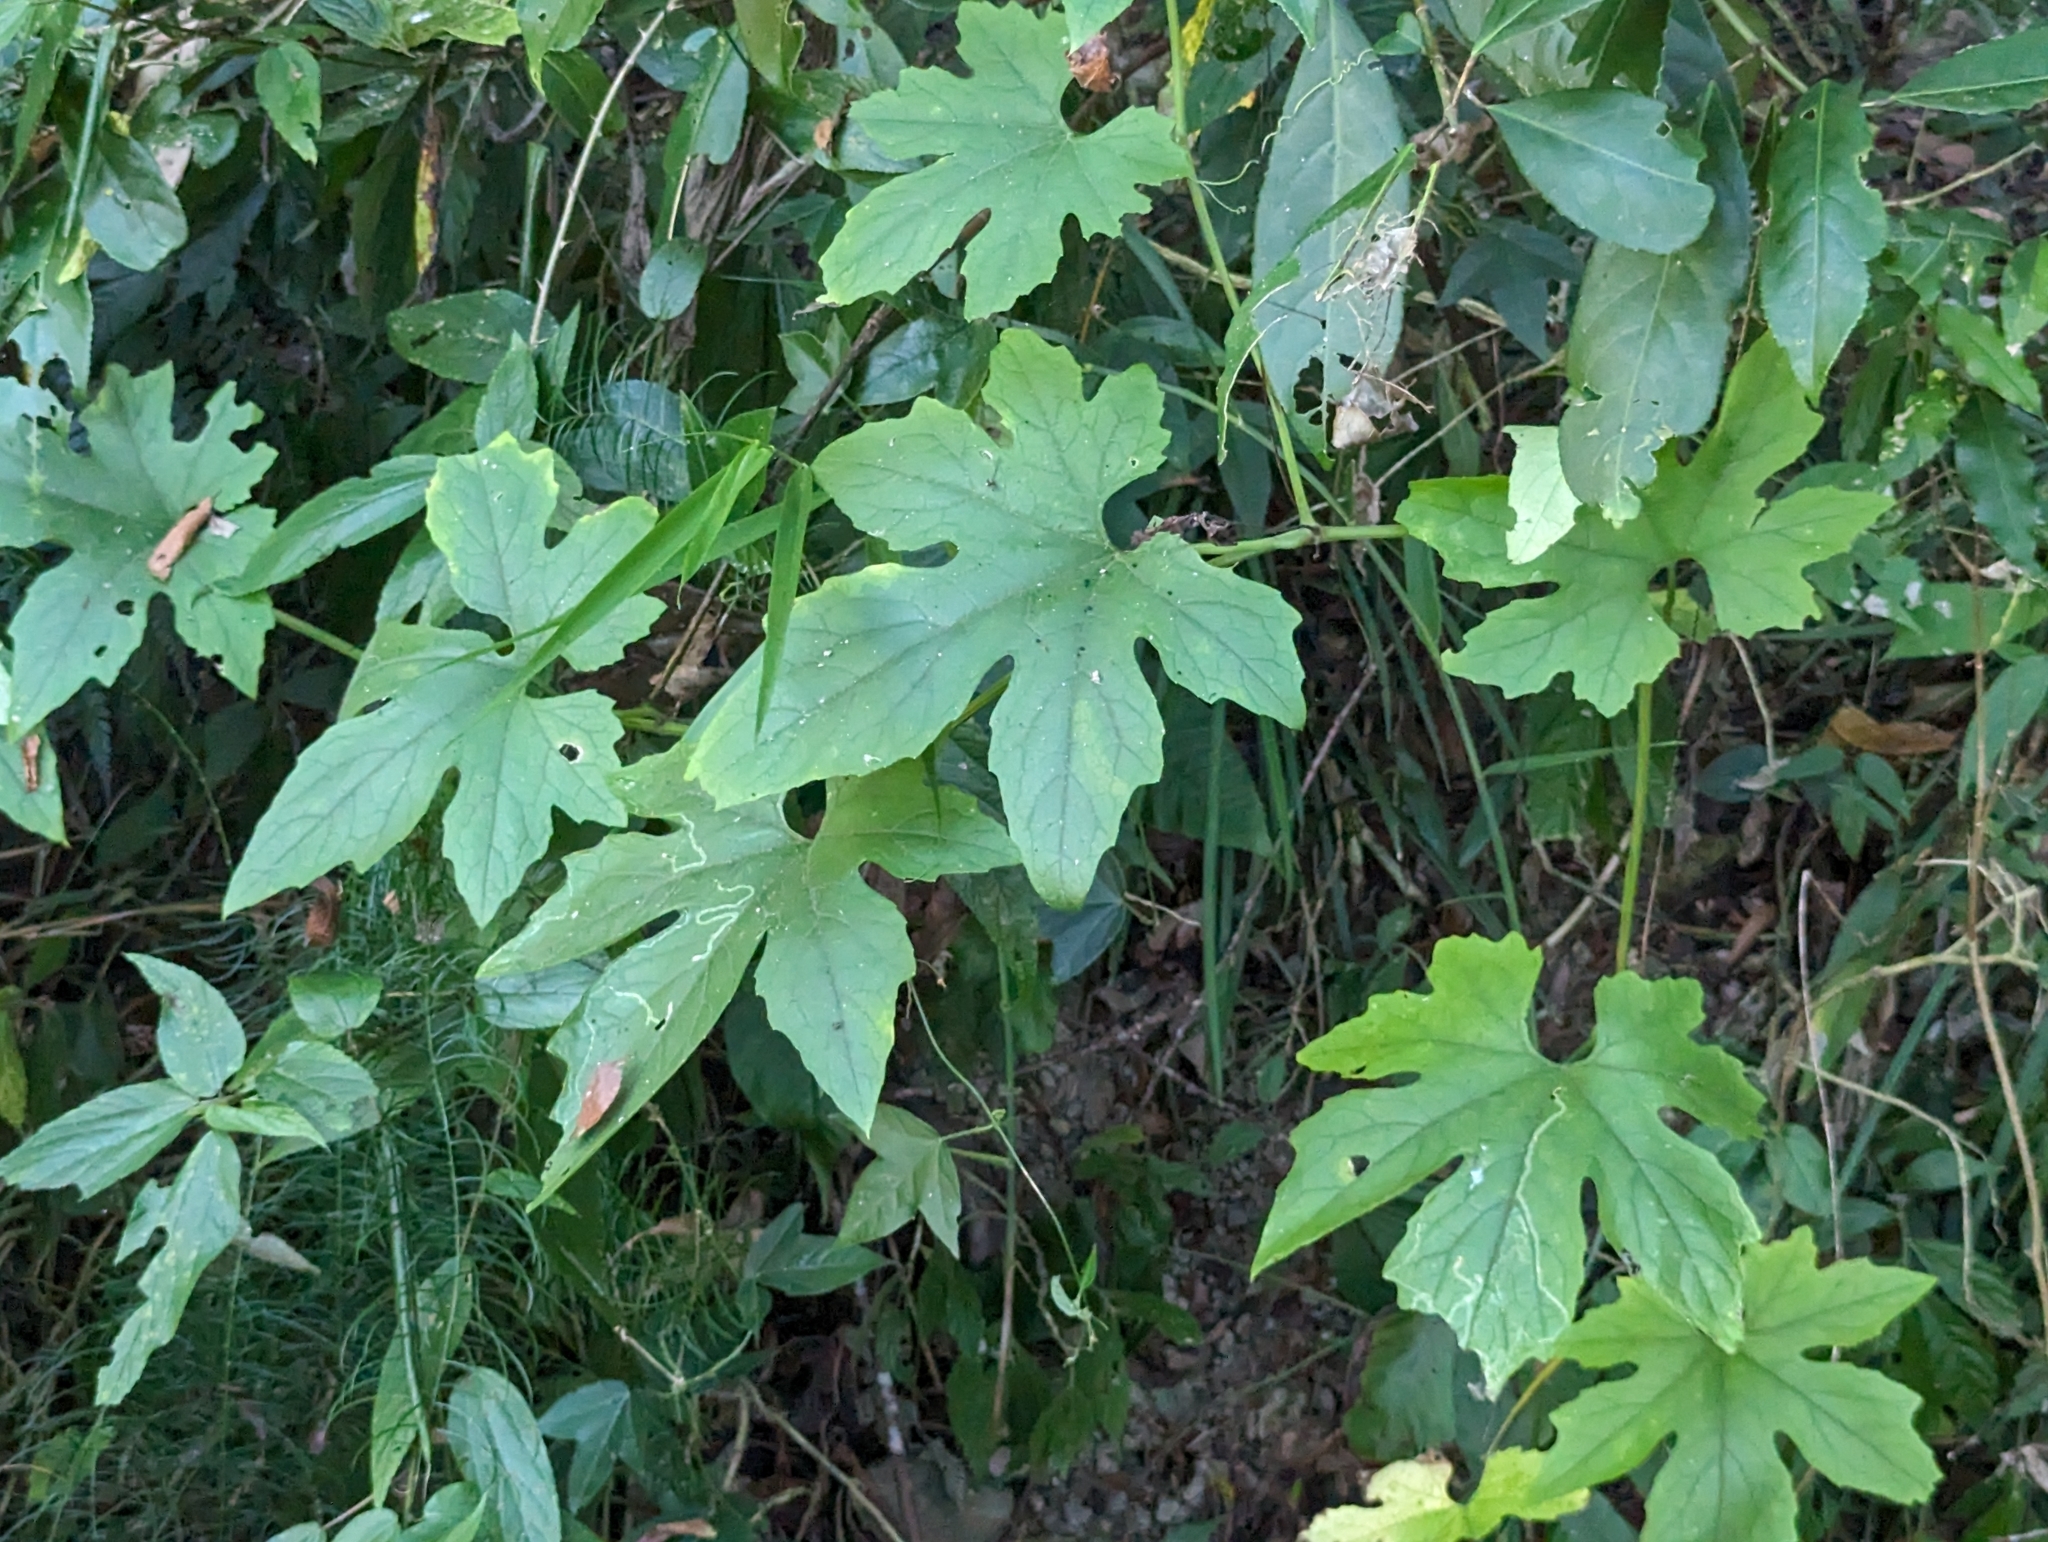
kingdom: Plantae
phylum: Tracheophyta
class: Magnoliopsida
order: Cucurbitales
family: Cucurbitaceae
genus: Diplocyclos
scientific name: Diplocyclos palmatus
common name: Striped-cucumber
